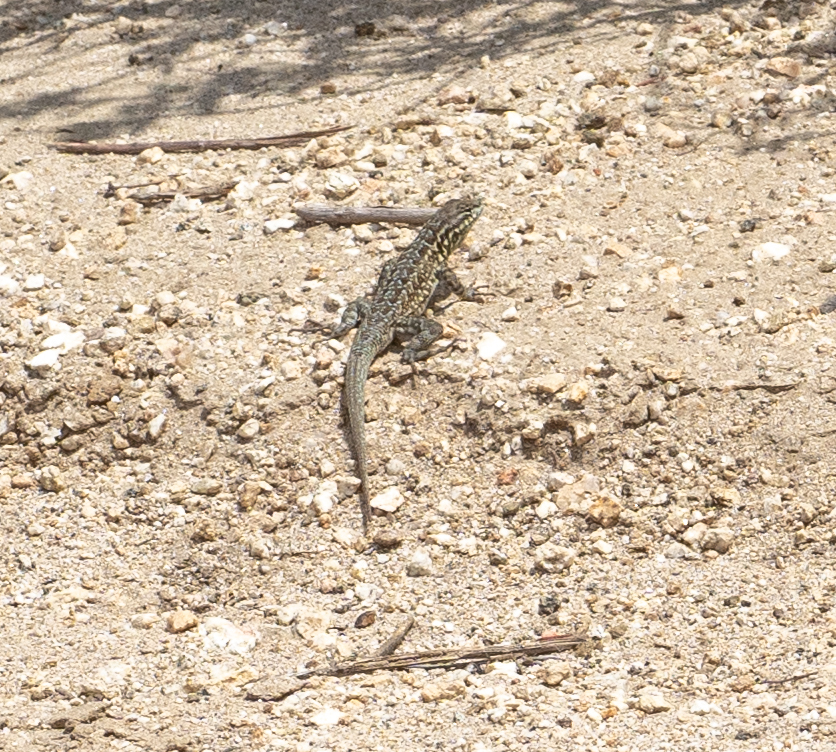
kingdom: Animalia
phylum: Chordata
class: Squamata
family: Phrynosomatidae
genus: Uta
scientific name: Uta stansburiana
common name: Side-blotched lizard
